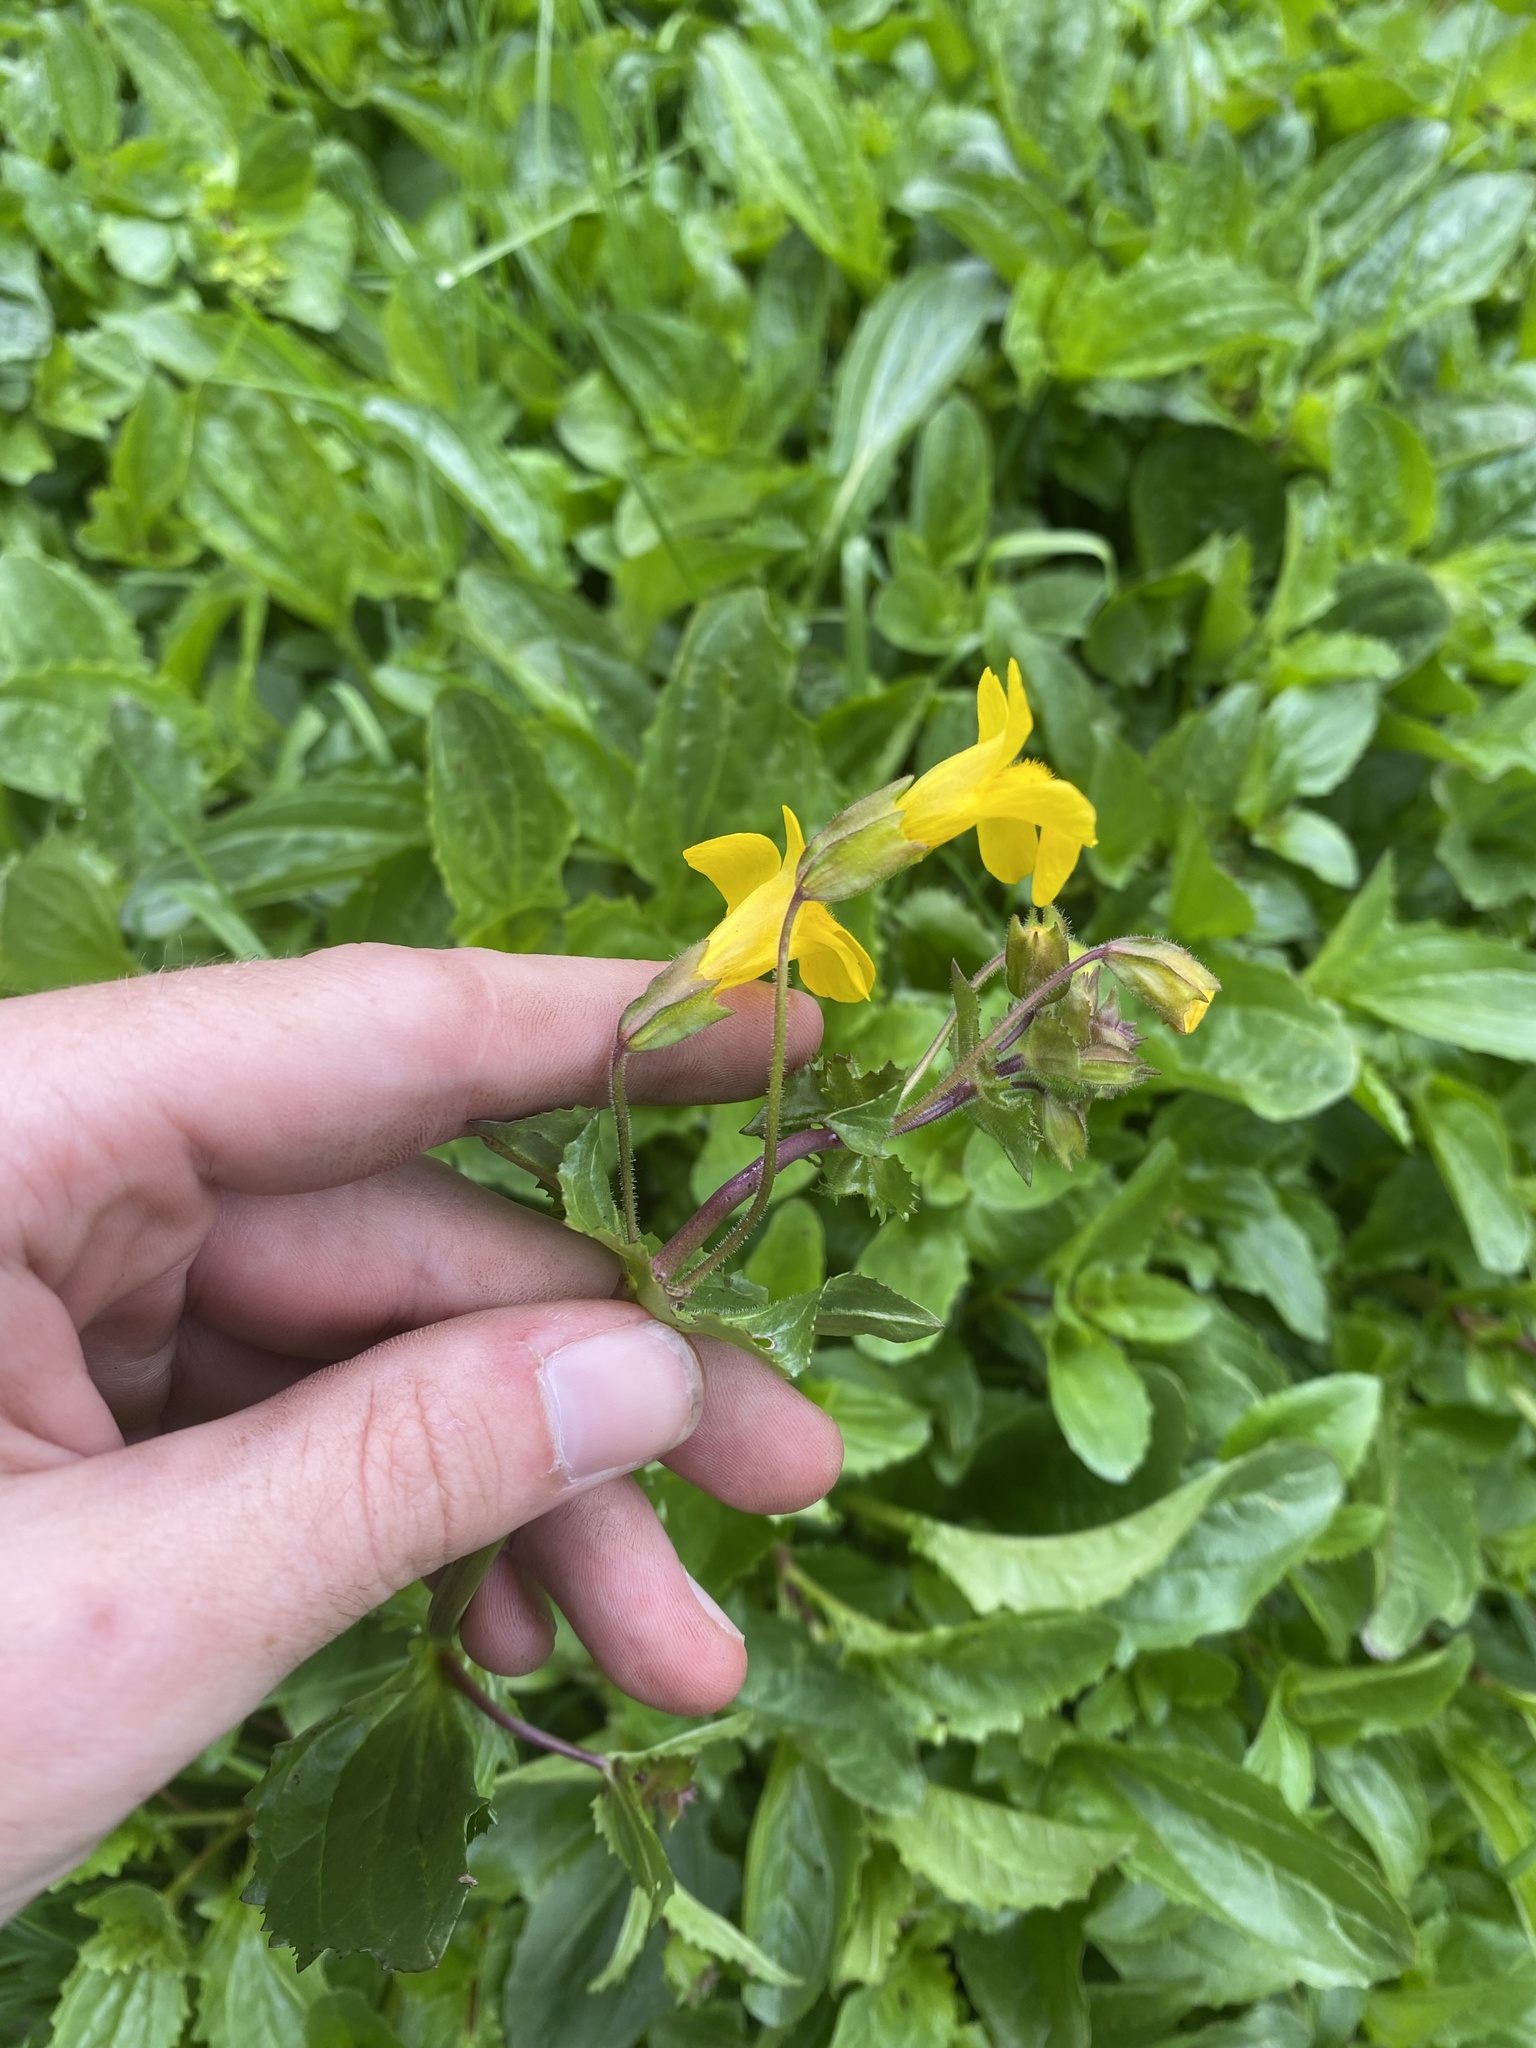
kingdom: Plantae
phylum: Tracheophyta
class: Magnoliopsida
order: Lamiales
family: Phrymaceae
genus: Erythranthe
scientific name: Erythranthe guttata
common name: Monkeyflower
